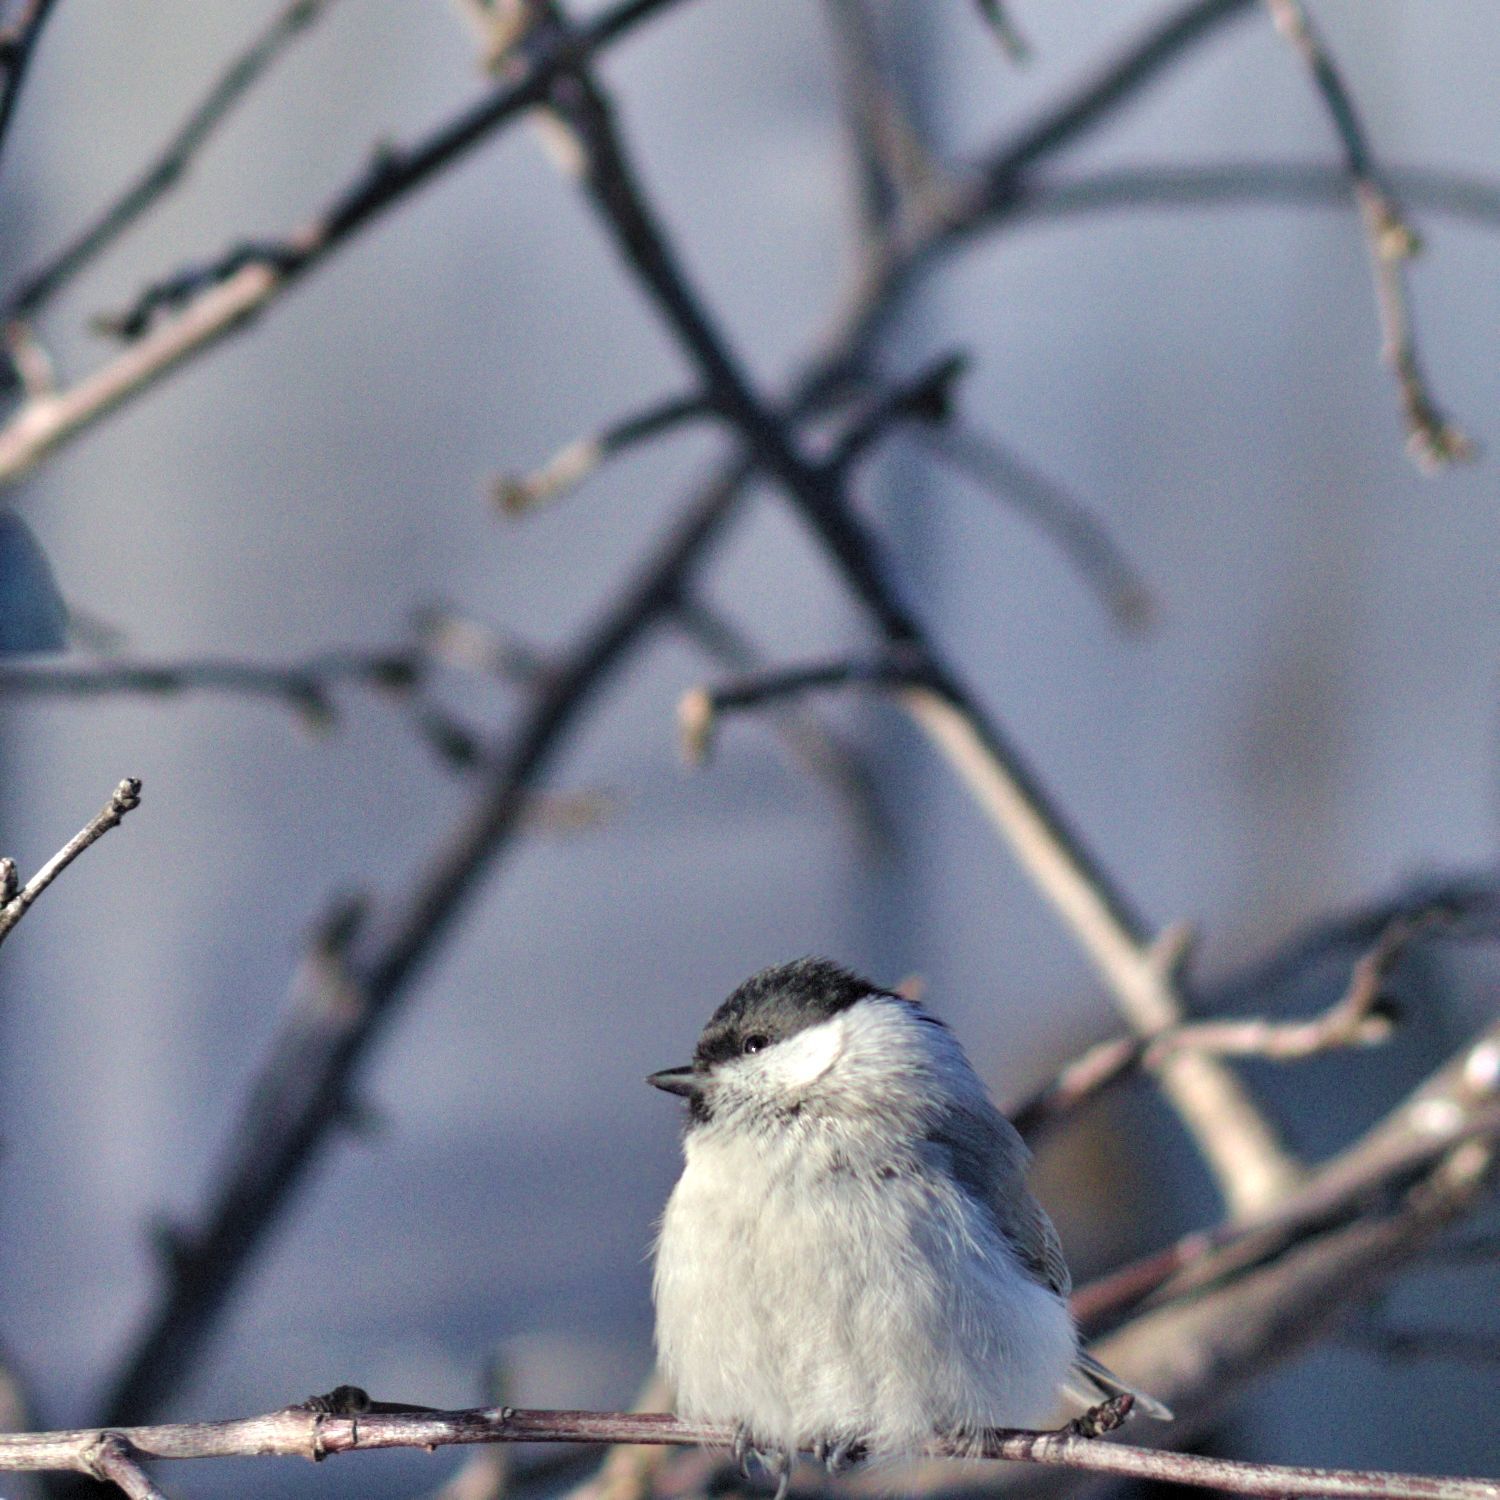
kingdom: Animalia
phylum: Chordata
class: Aves
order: Passeriformes
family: Paridae
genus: Poecile
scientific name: Poecile palustris
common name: Marsh tit
